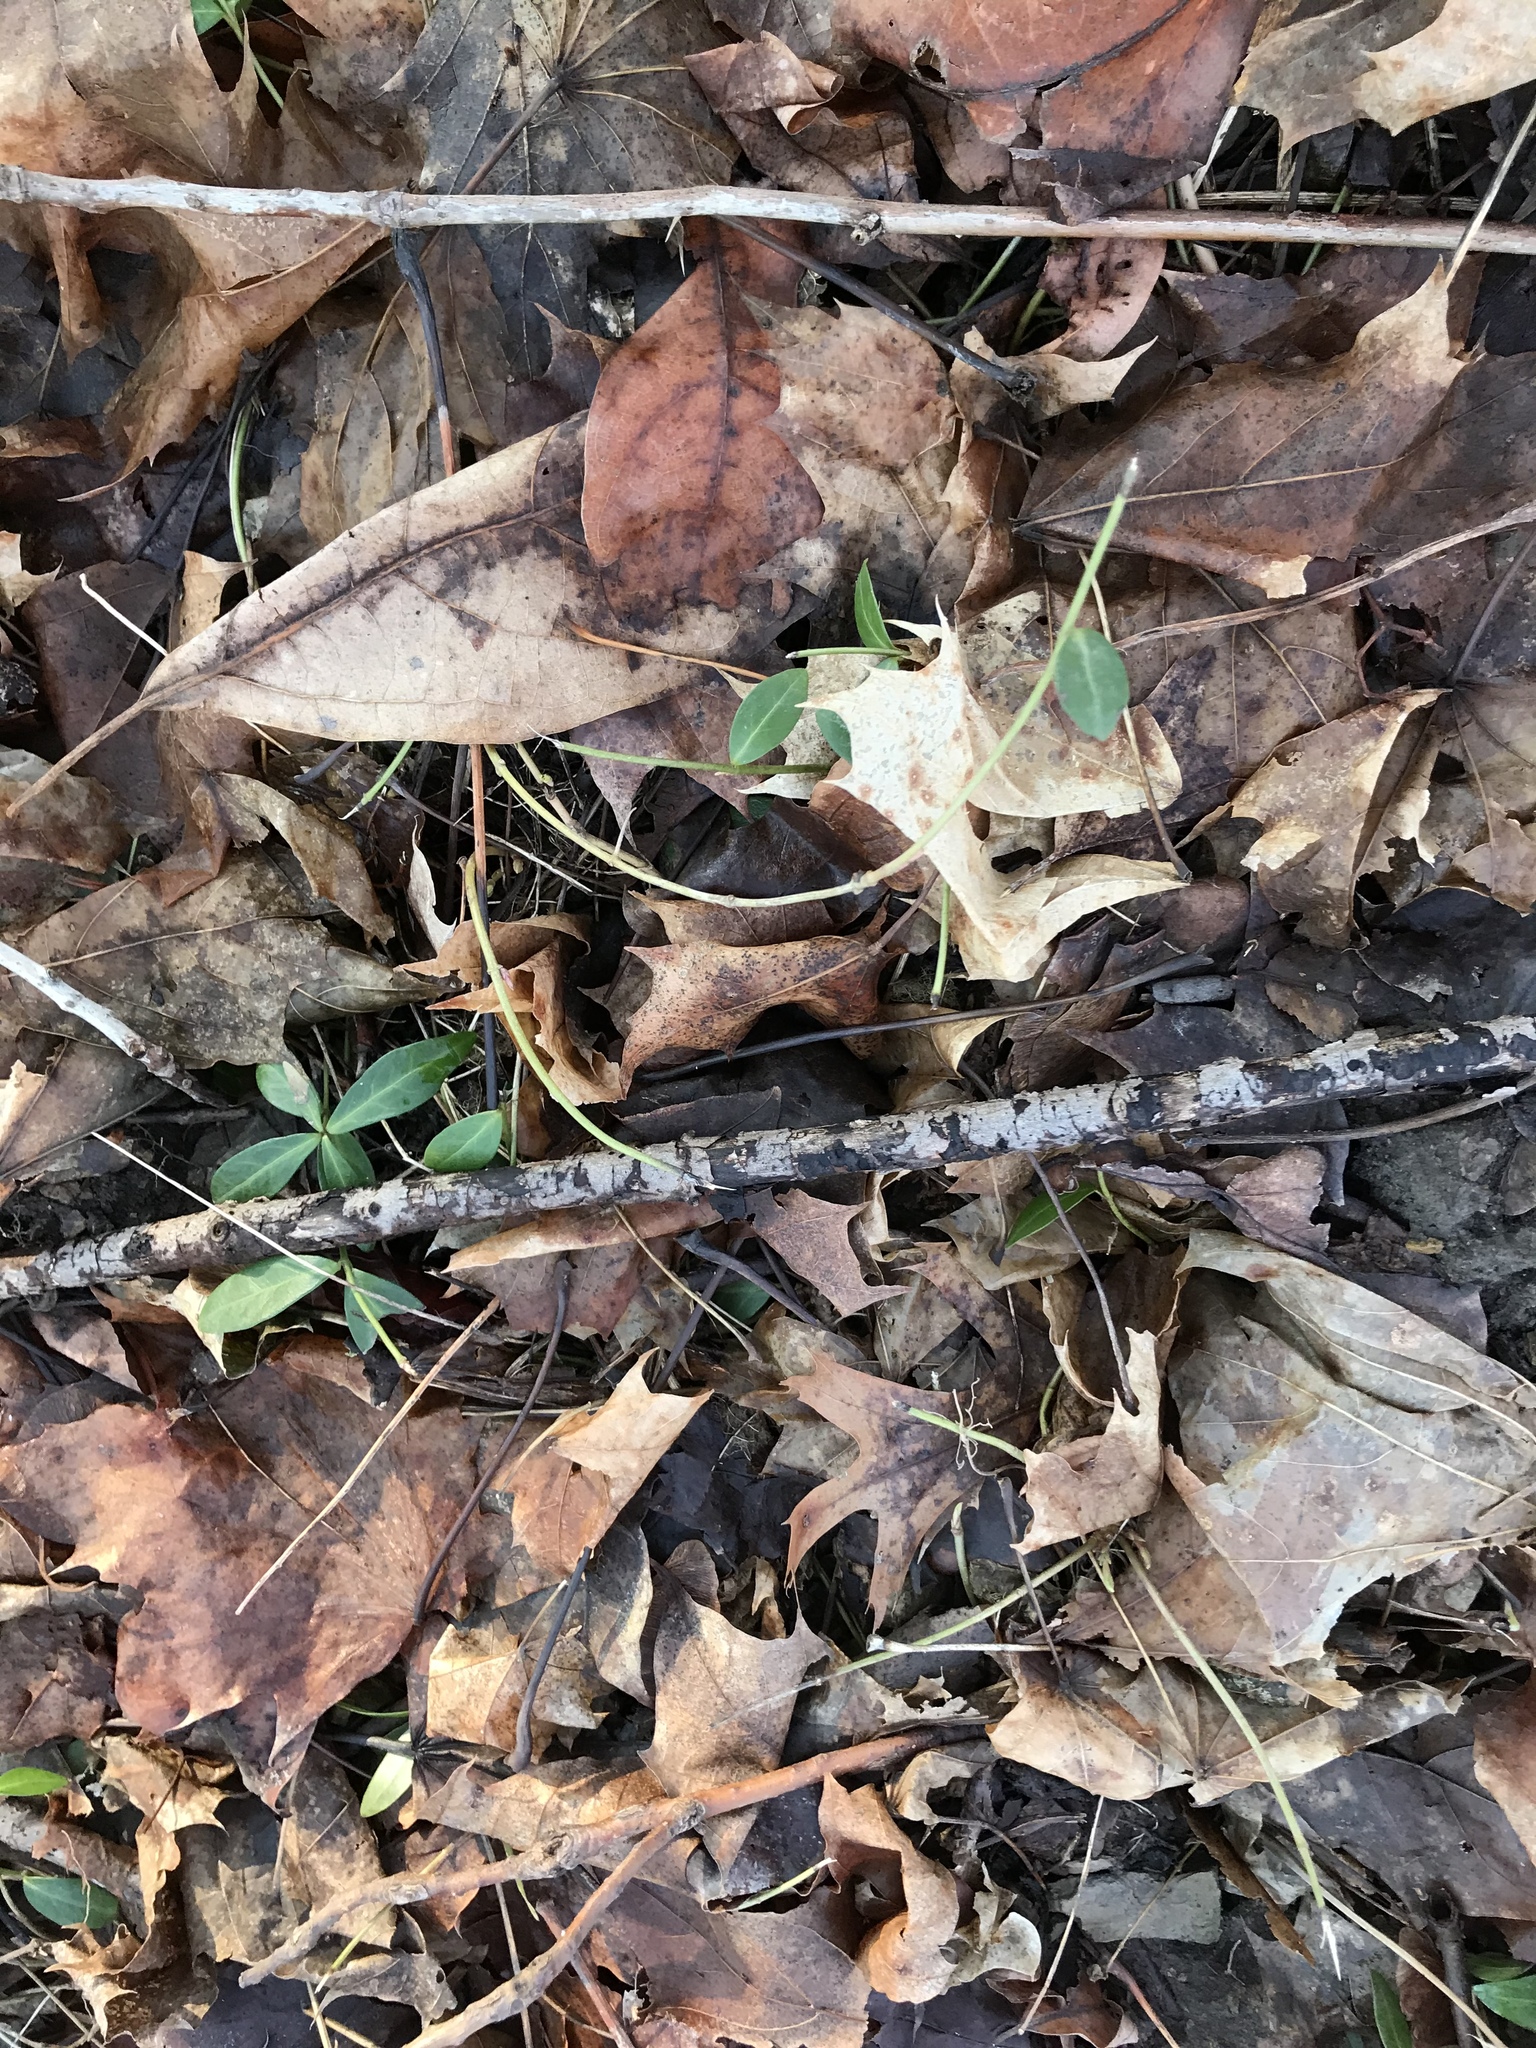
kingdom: Plantae
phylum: Tracheophyta
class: Magnoliopsida
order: Celastrales
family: Celastraceae
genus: Euonymus
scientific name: Euonymus fortunei
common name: Climbing euonymus
